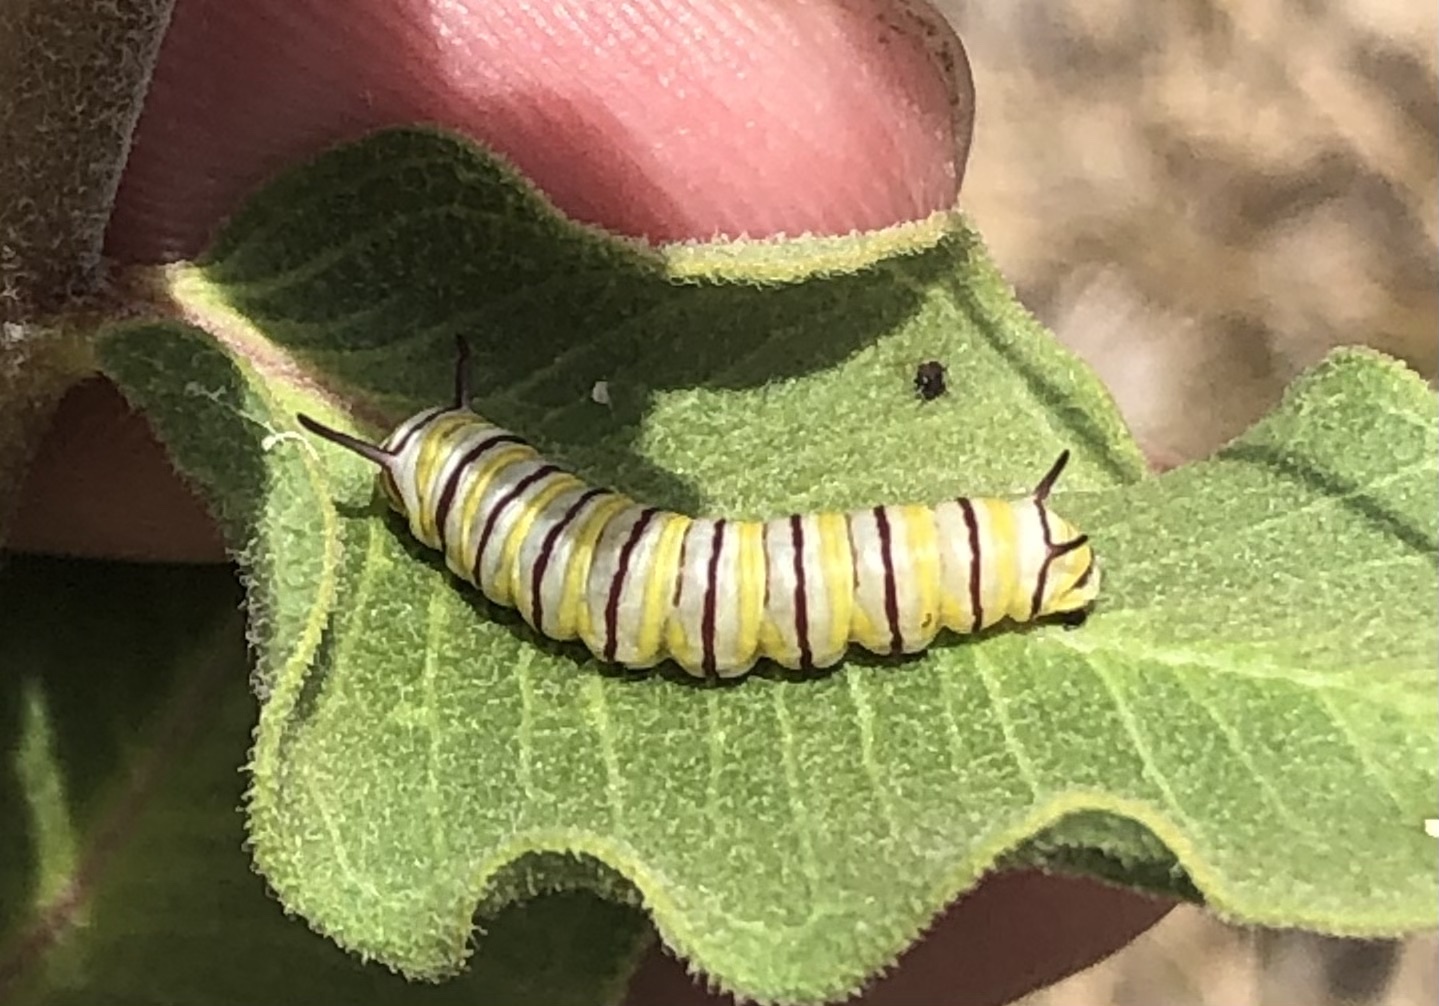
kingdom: Animalia
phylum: Arthropoda
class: Insecta
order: Lepidoptera
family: Nymphalidae
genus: Danaus
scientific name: Danaus plexippus
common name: Monarch
